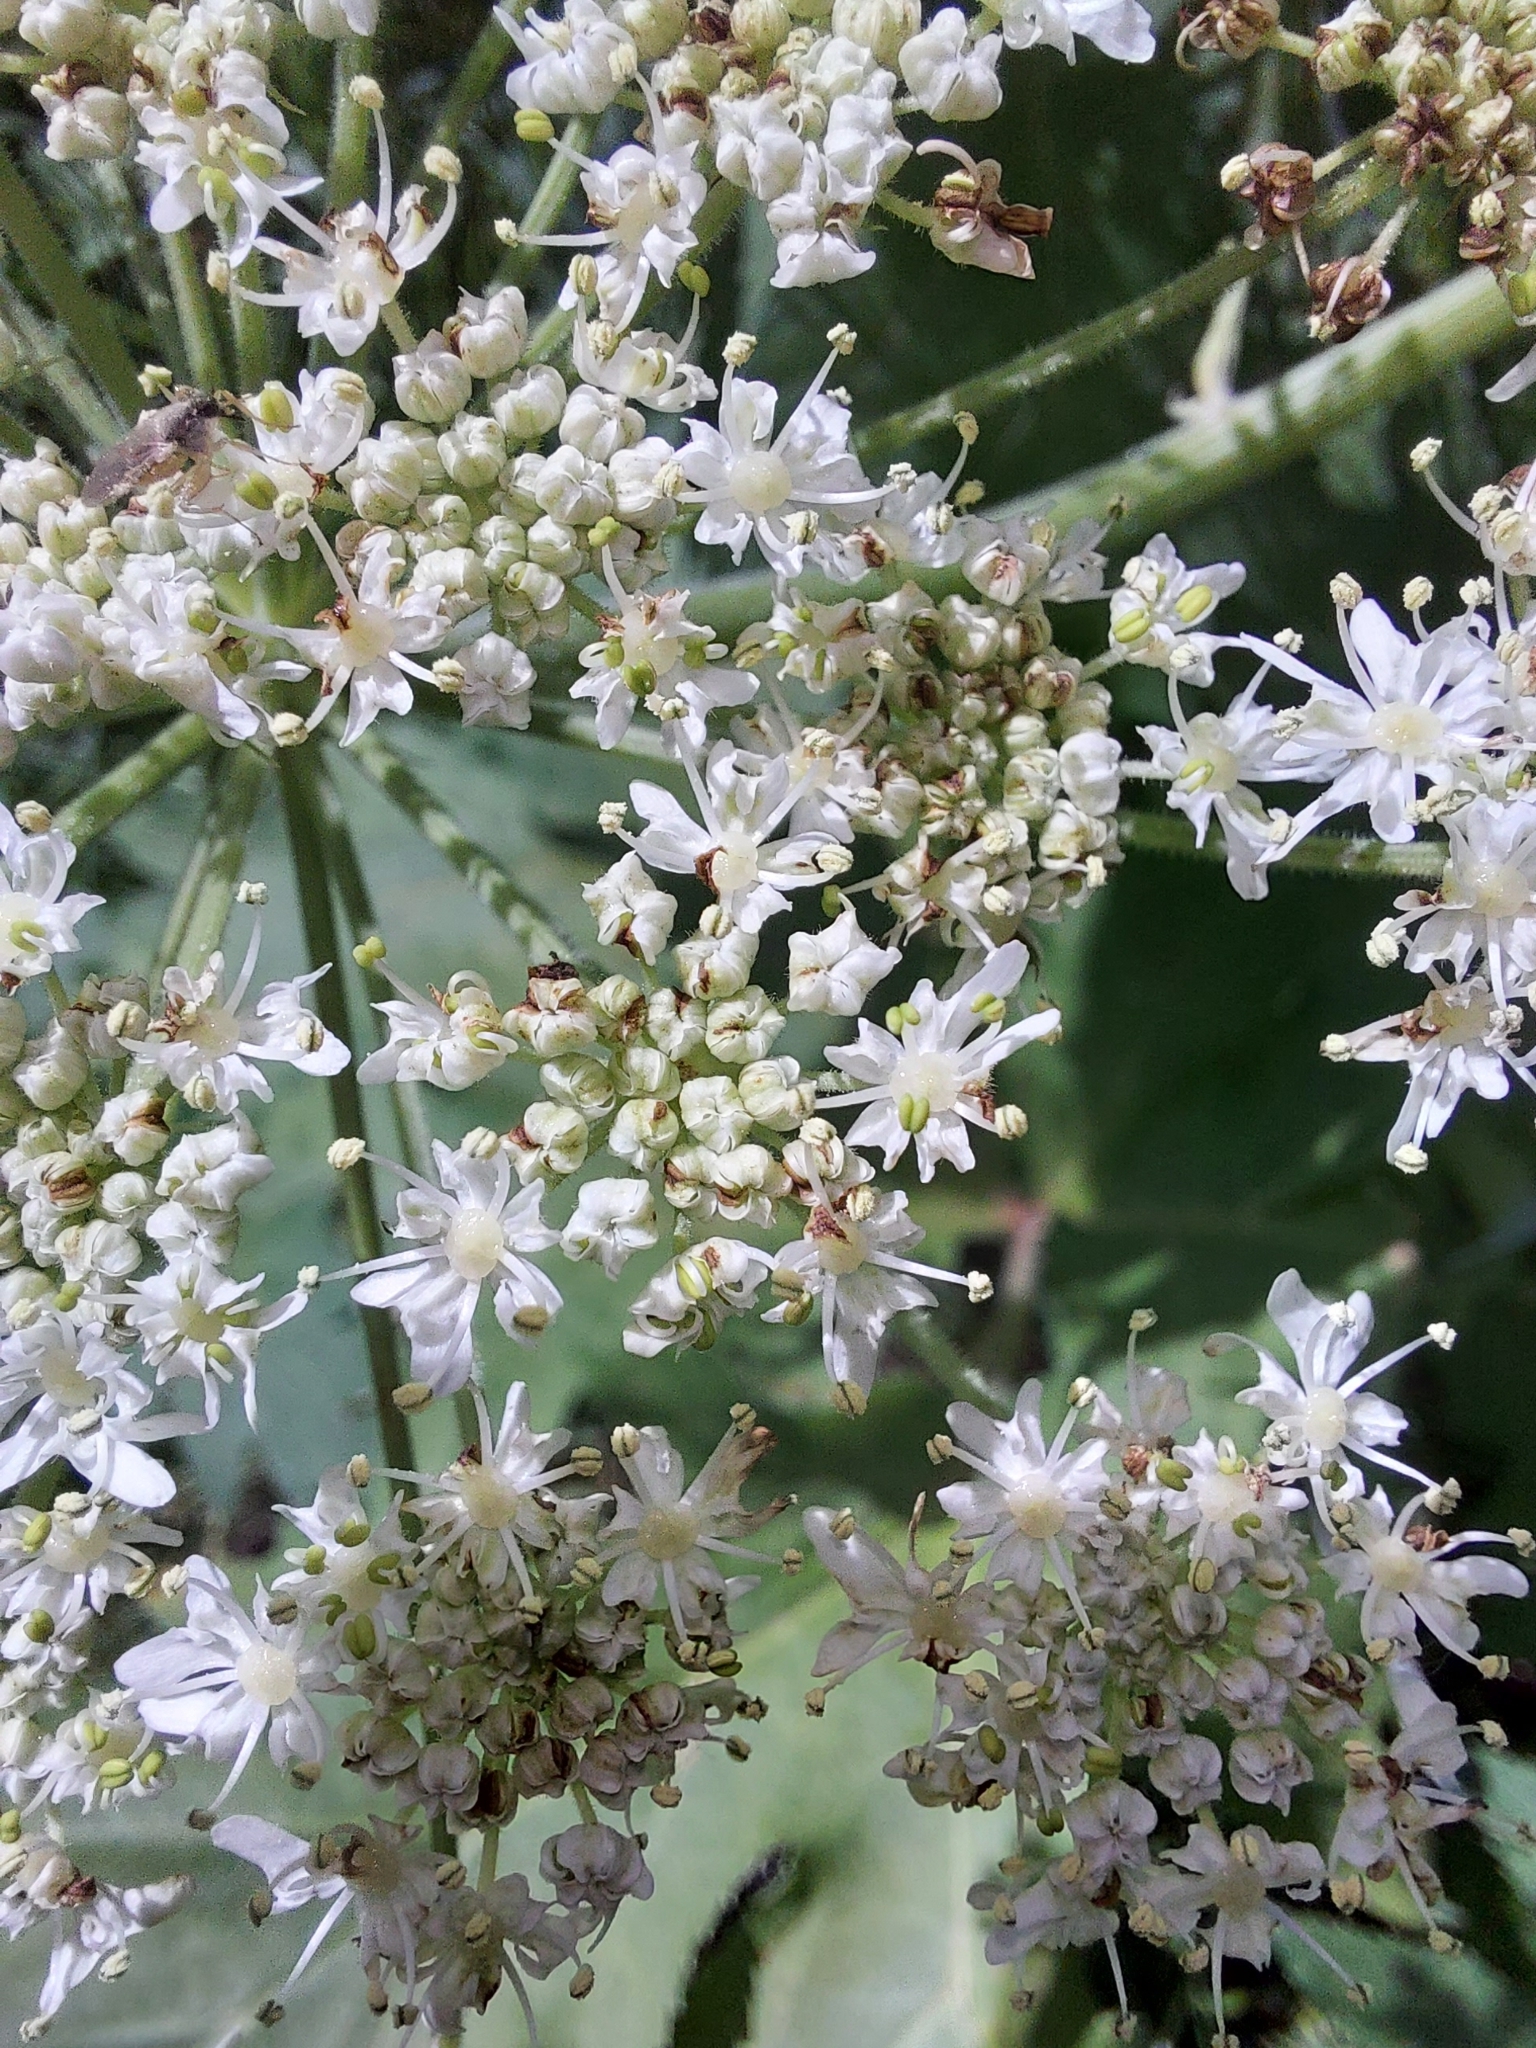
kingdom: Plantae
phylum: Tracheophyta
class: Magnoliopsida
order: Apiales
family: Apiaceae
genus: Heracleum
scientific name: Heracleum dissectum
